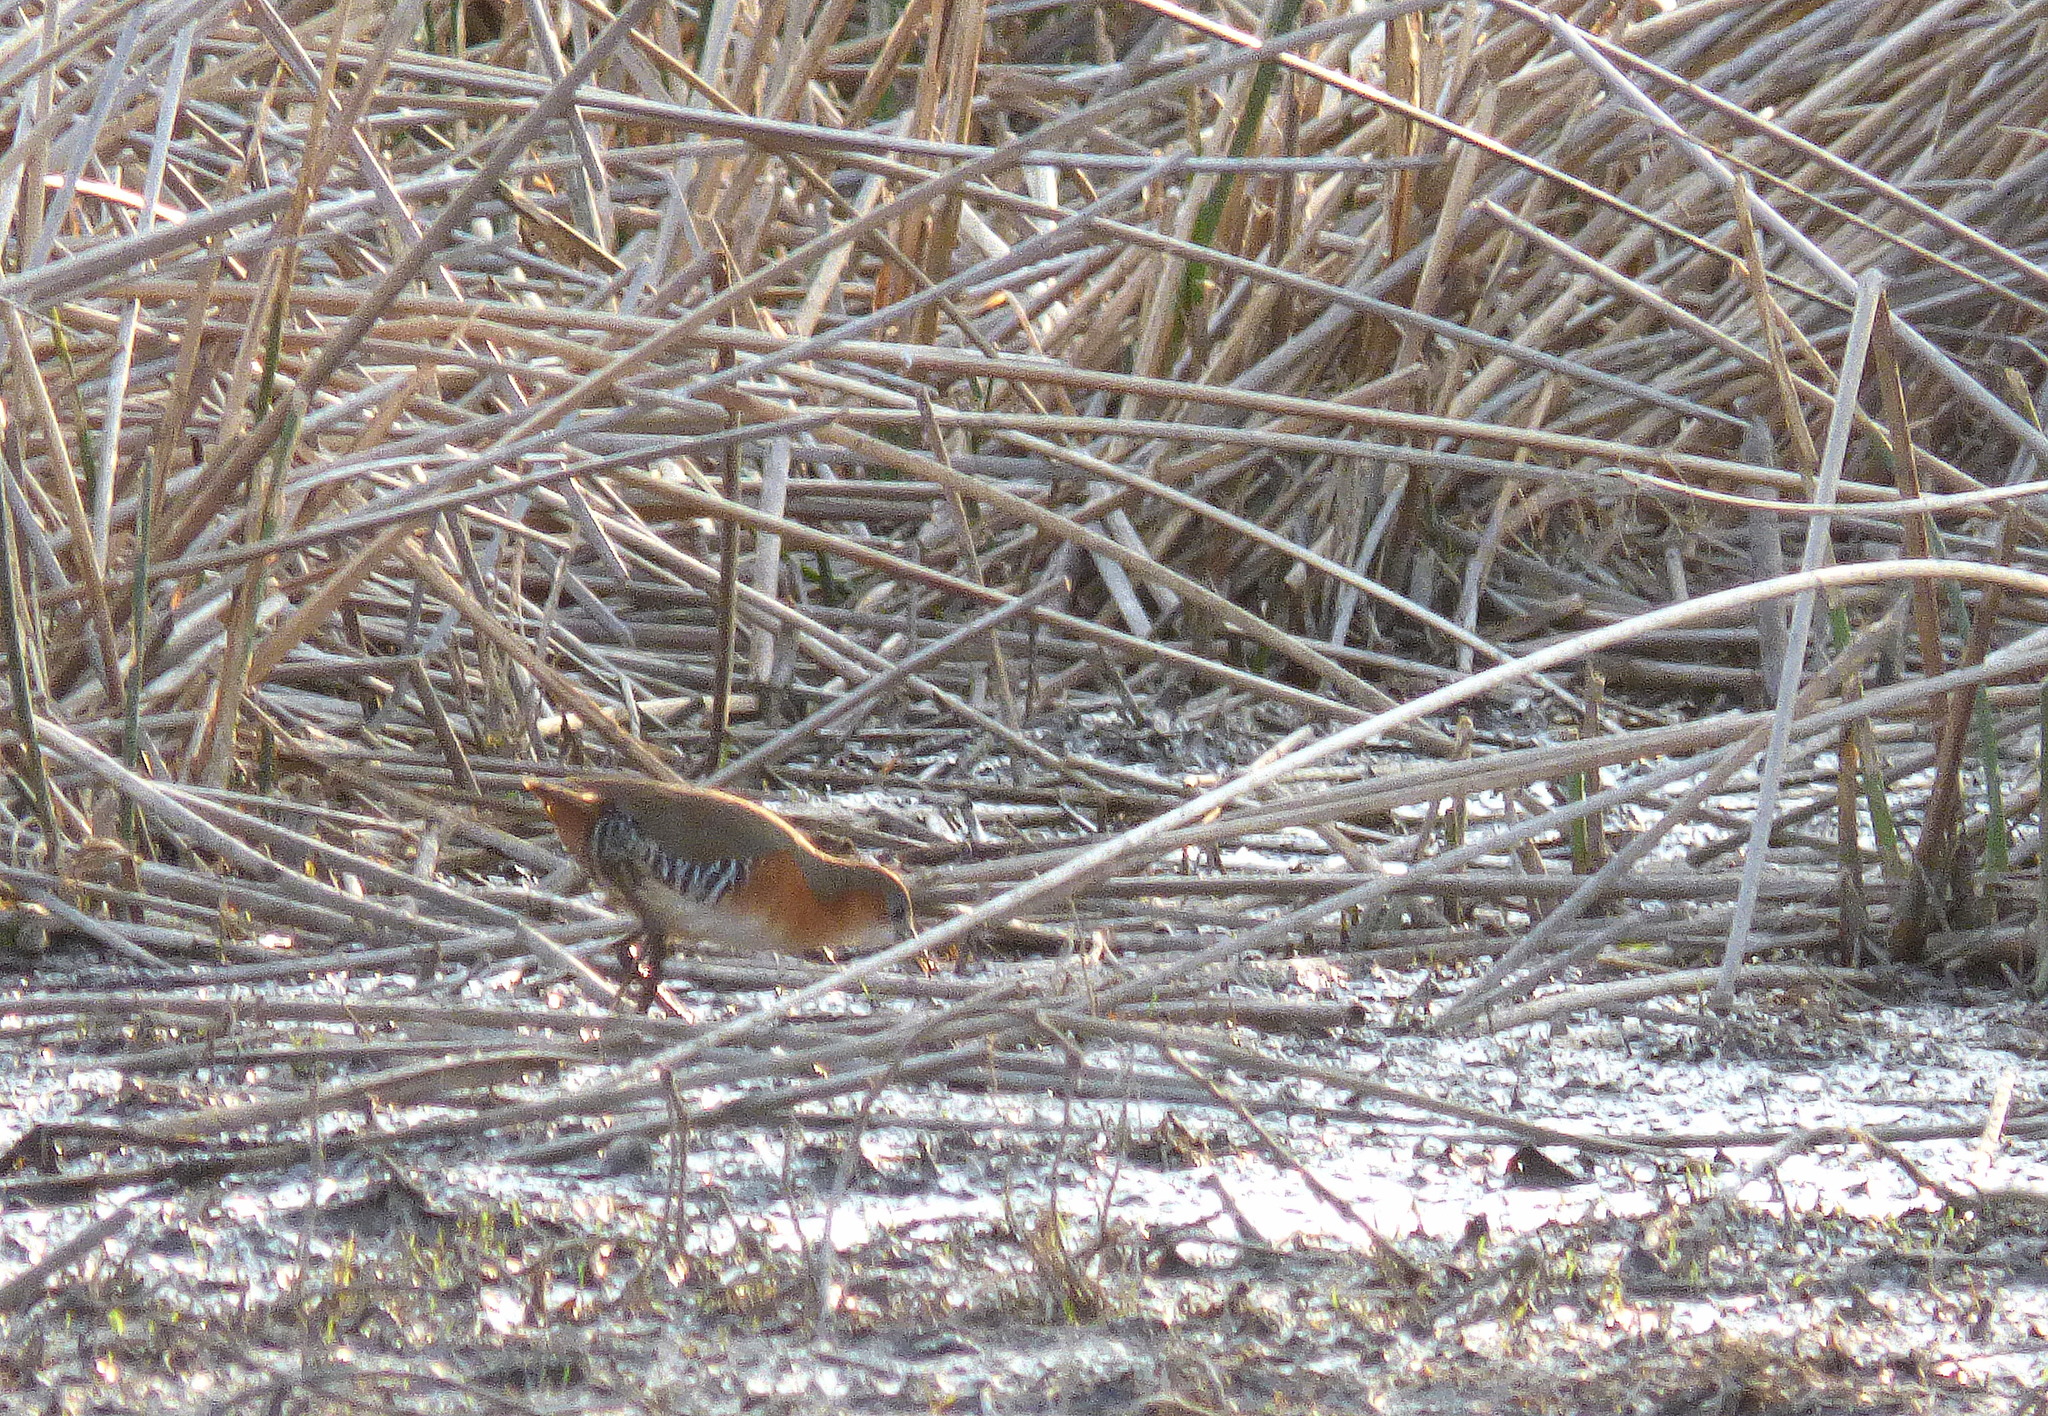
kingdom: Animalia
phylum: Chordata
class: Aves
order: Gruiformes
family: Rallidae
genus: Laterallus
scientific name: Laterallus melanophaius
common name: Rufous-sided crake
